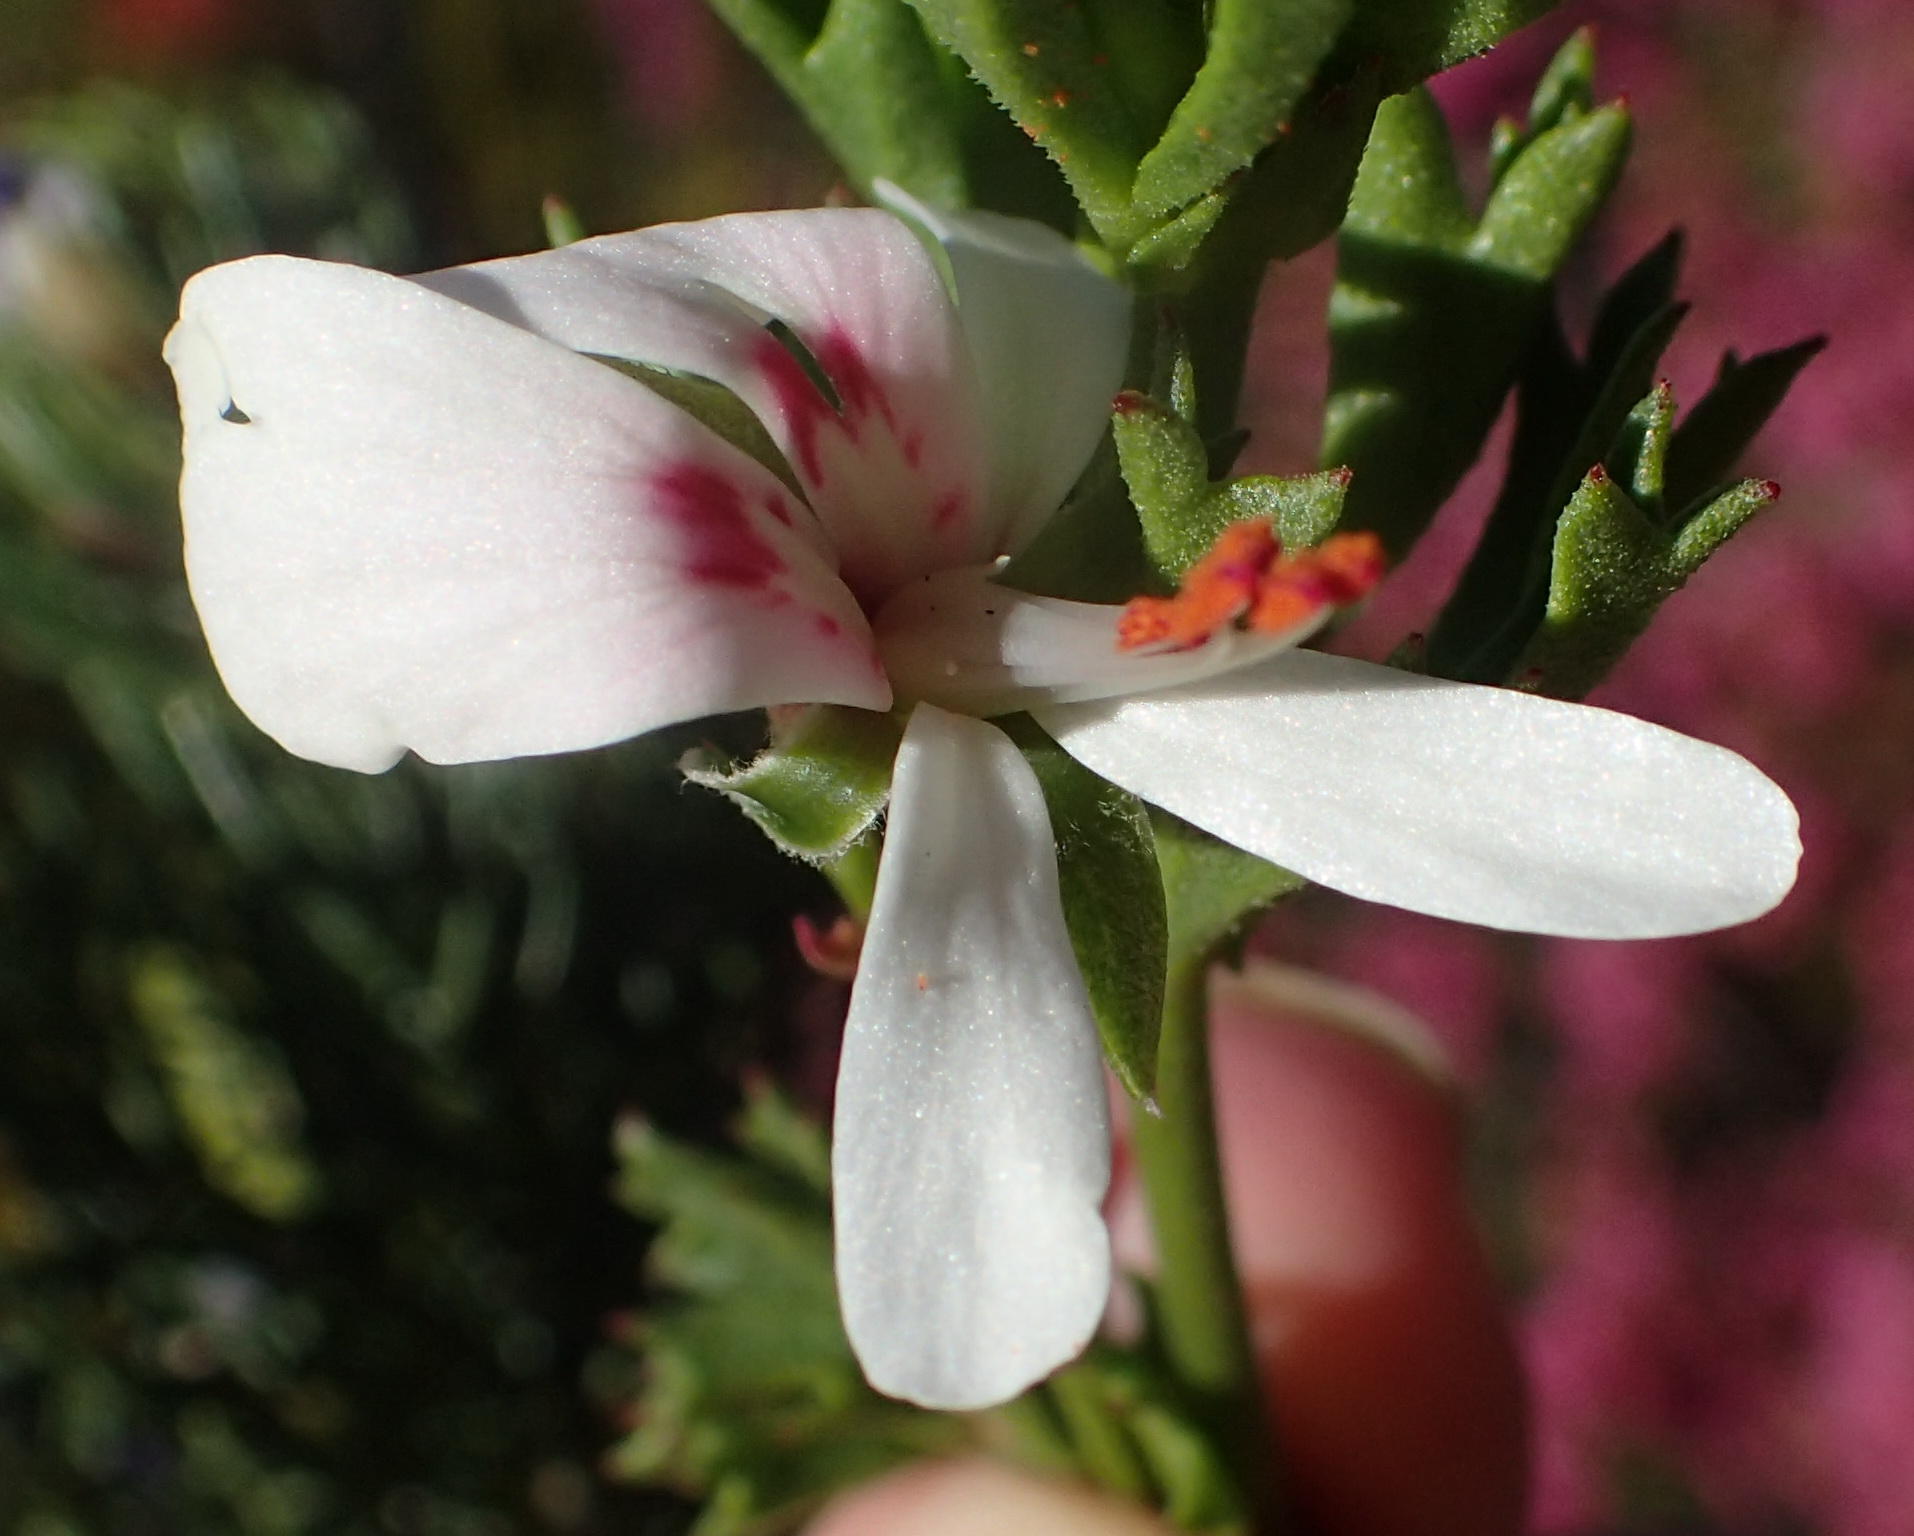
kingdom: Plantae
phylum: Tracheophyta
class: Magnoliopsida
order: Geraniales
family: Geraniaceae
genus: Pelargonium
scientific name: Pelargonium ternatum
